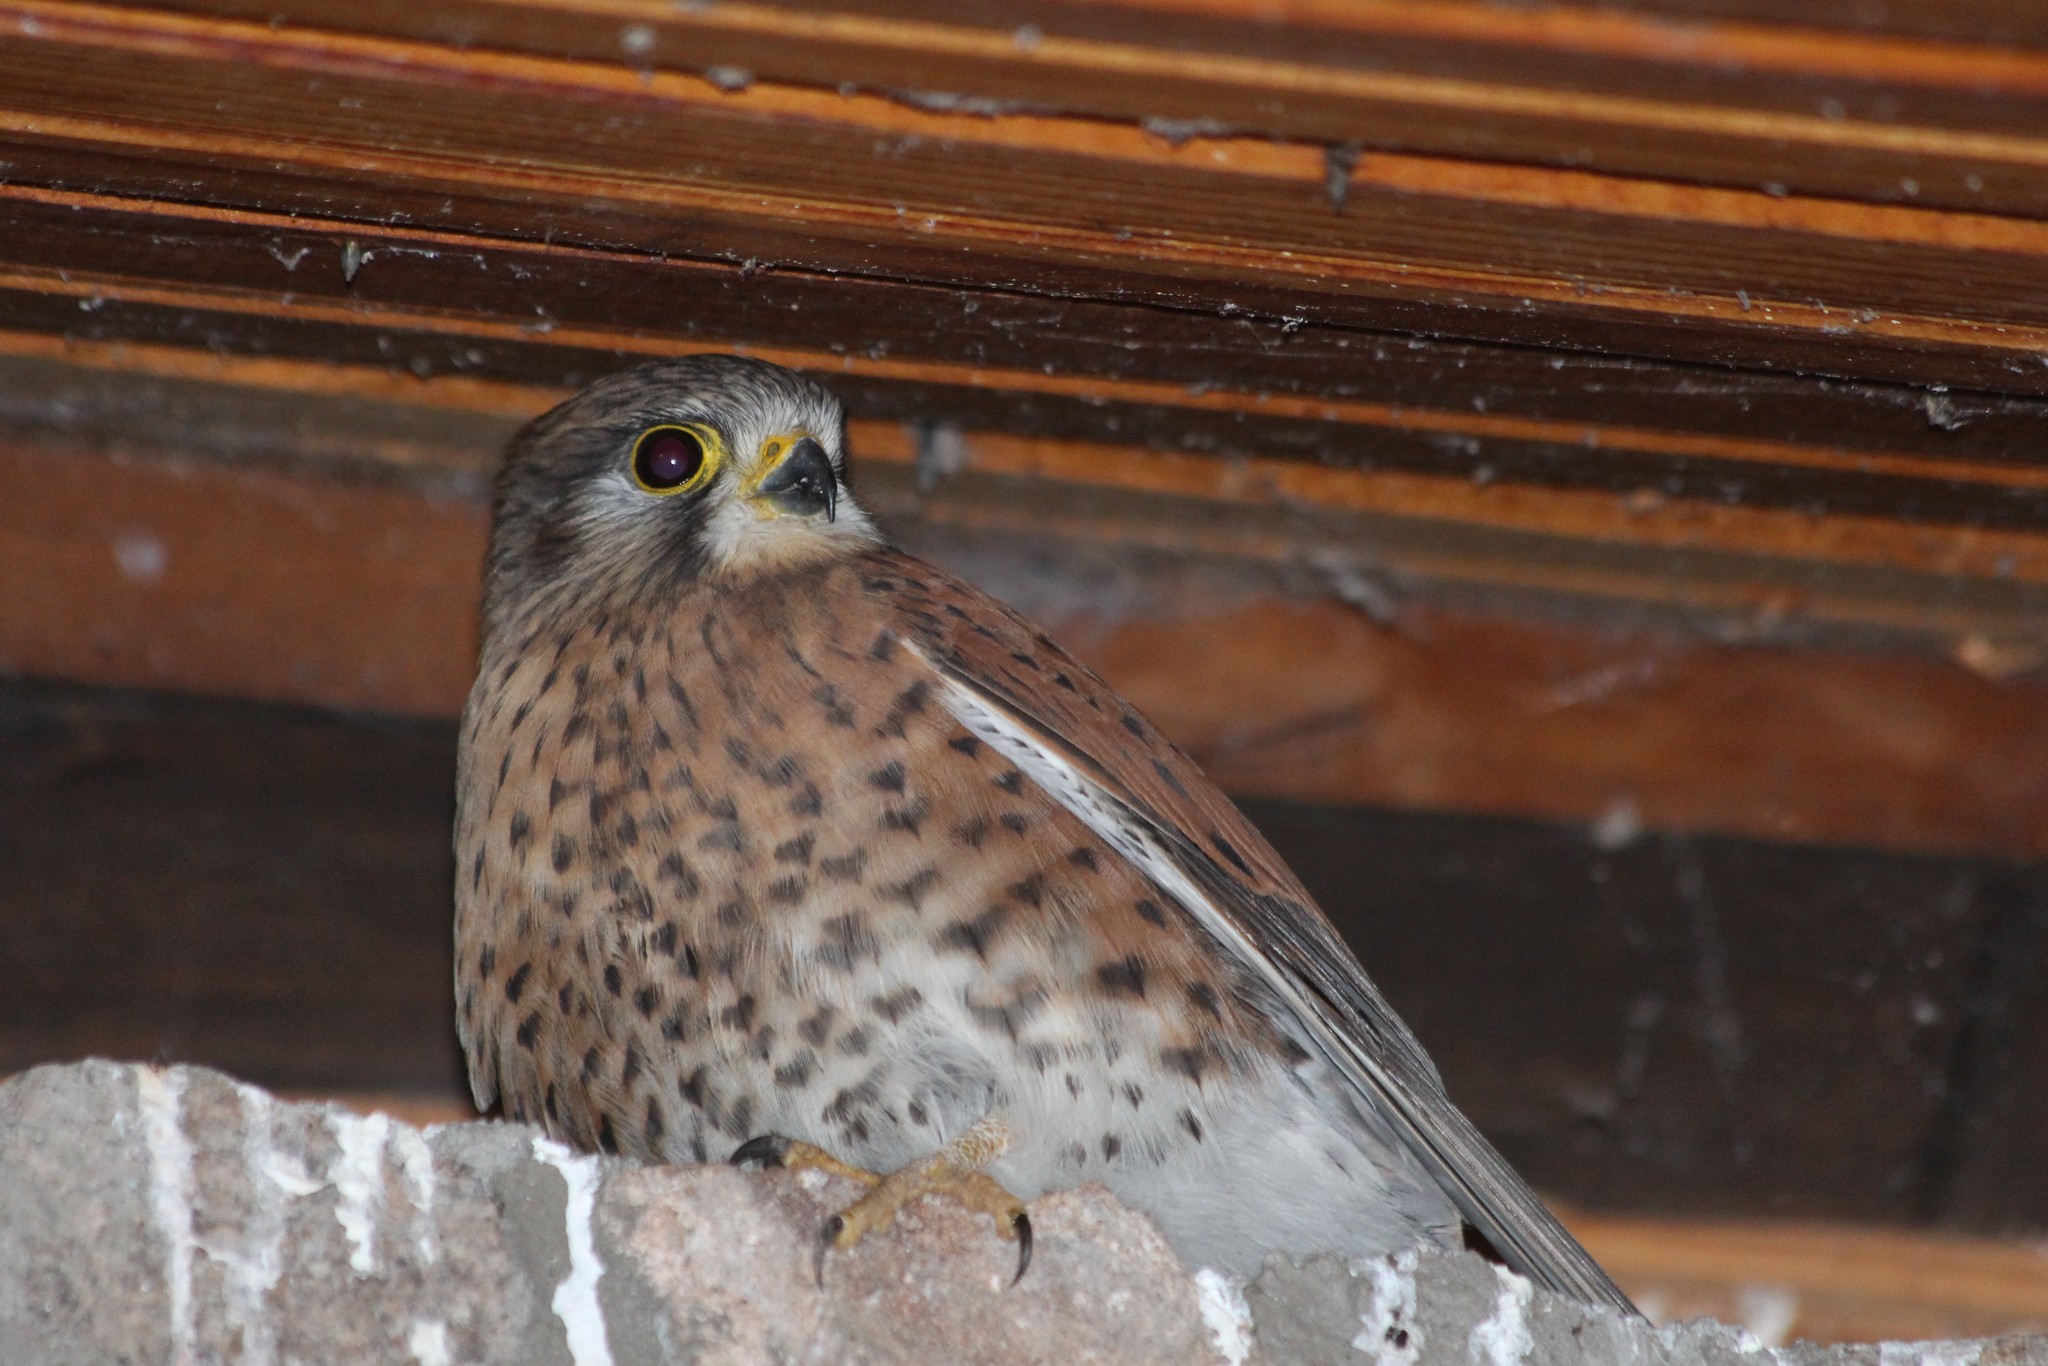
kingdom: Animalia
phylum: Chordata
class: Aves
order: Falconiformes
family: Falconidae
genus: Falco
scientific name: Falco newtoni
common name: Malagasy kestrel
